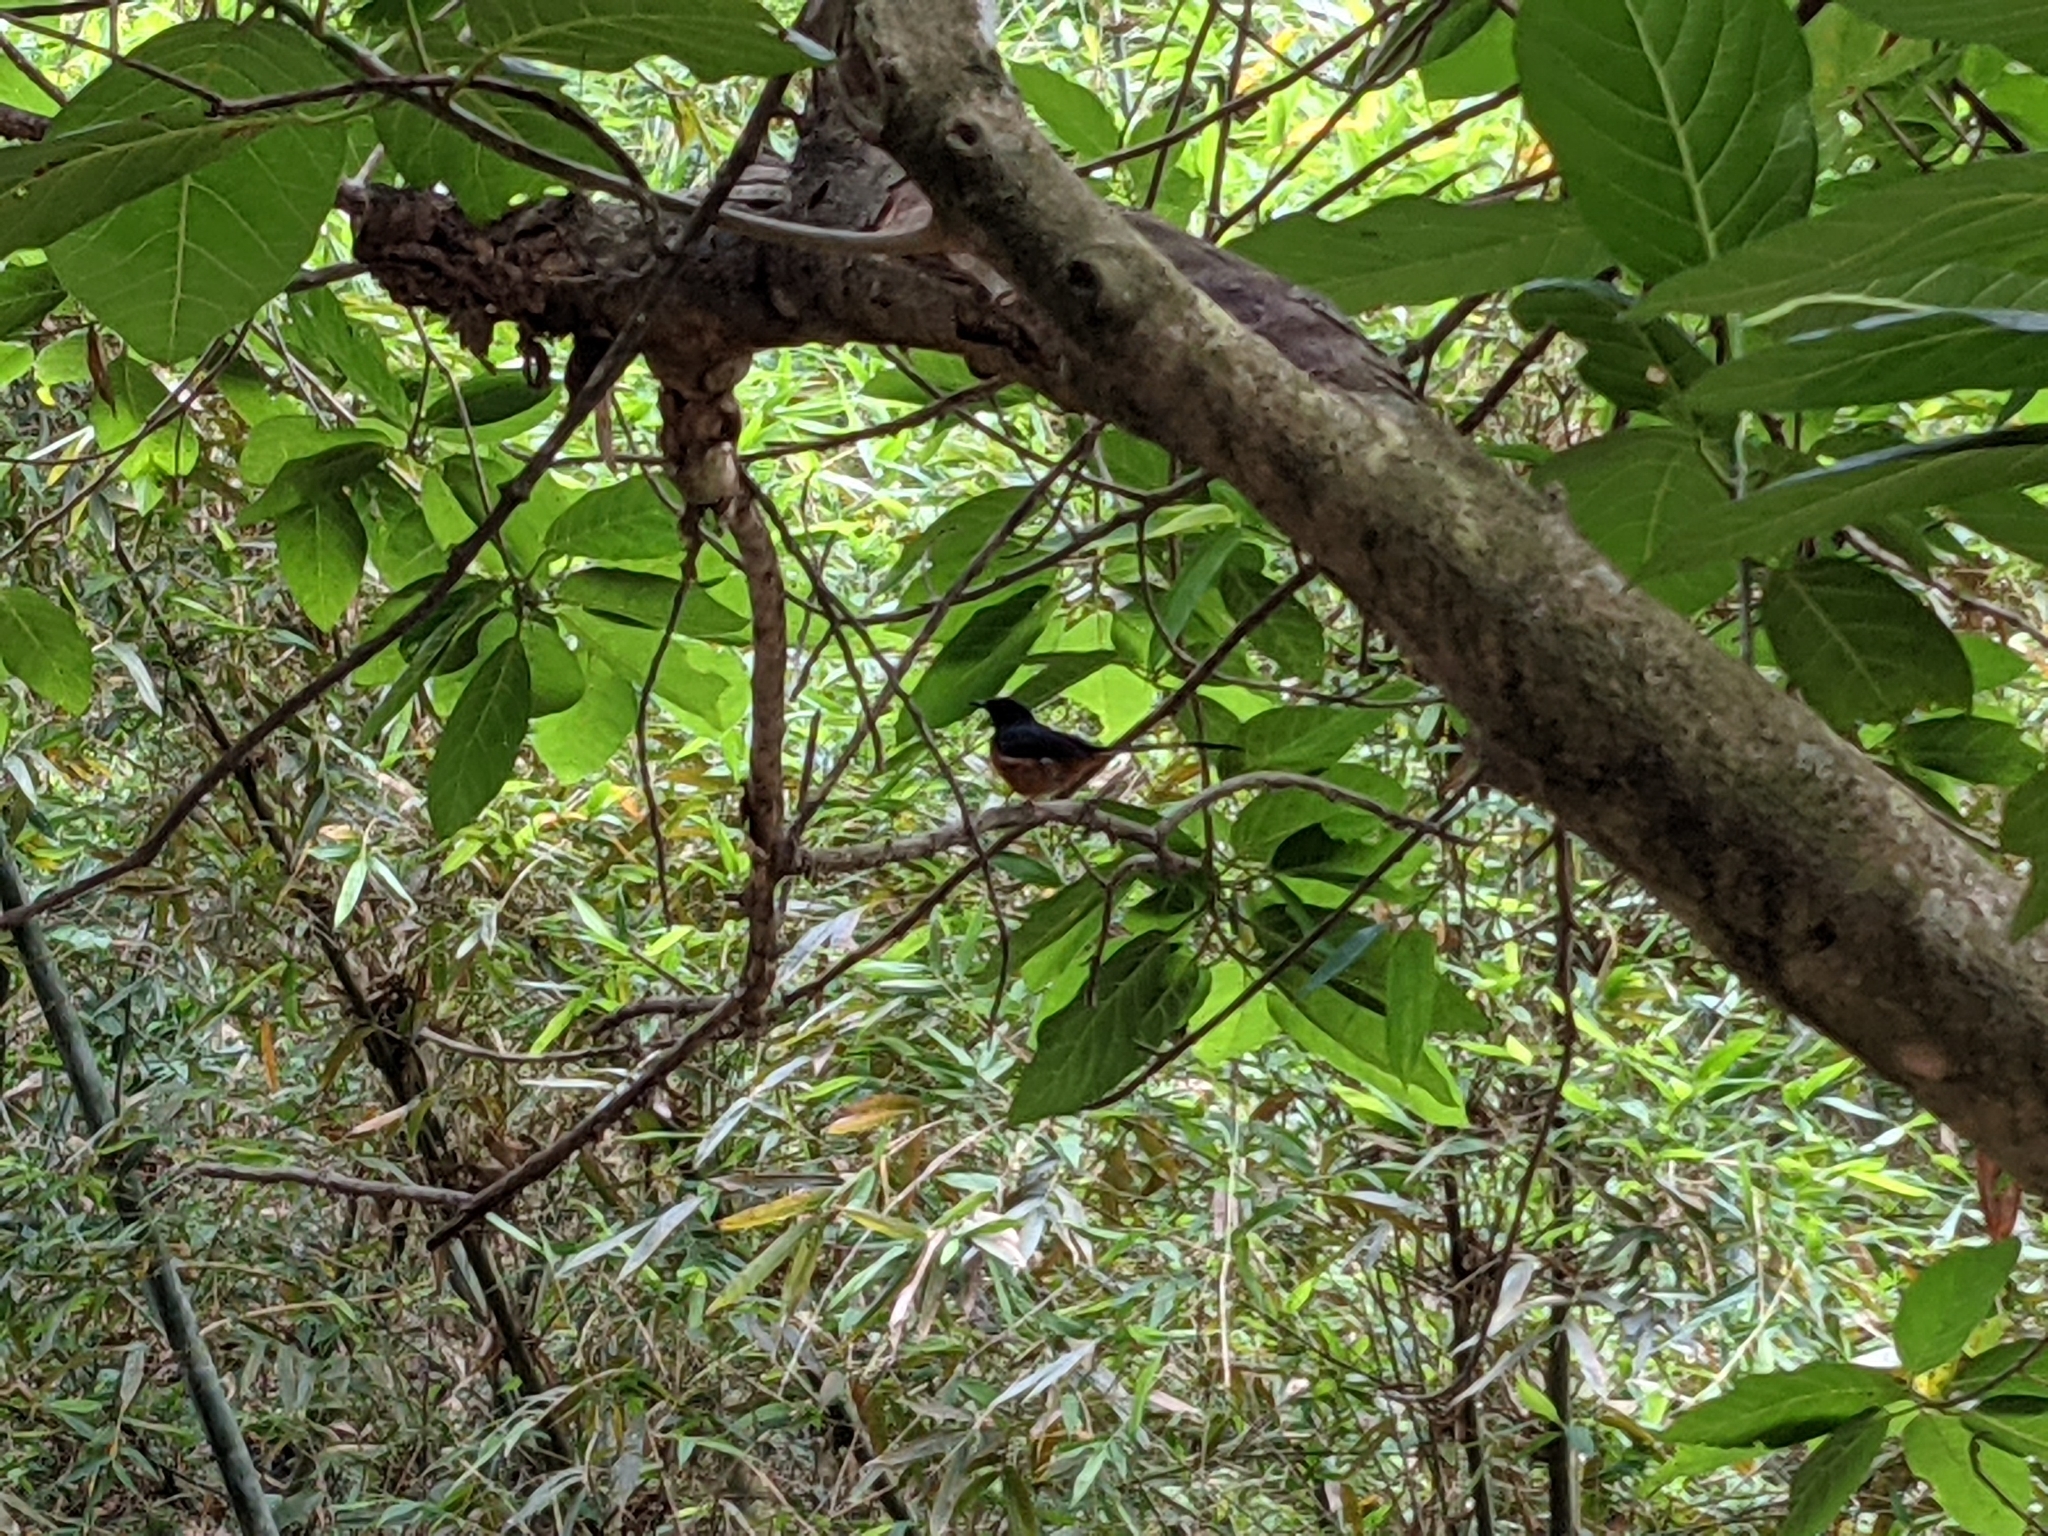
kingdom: Animalia
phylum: Chordata
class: Aves
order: Passeriformes
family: Muscicapidae
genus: Copsychus
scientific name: Copsychus malabaricus
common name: White-rumped shama
